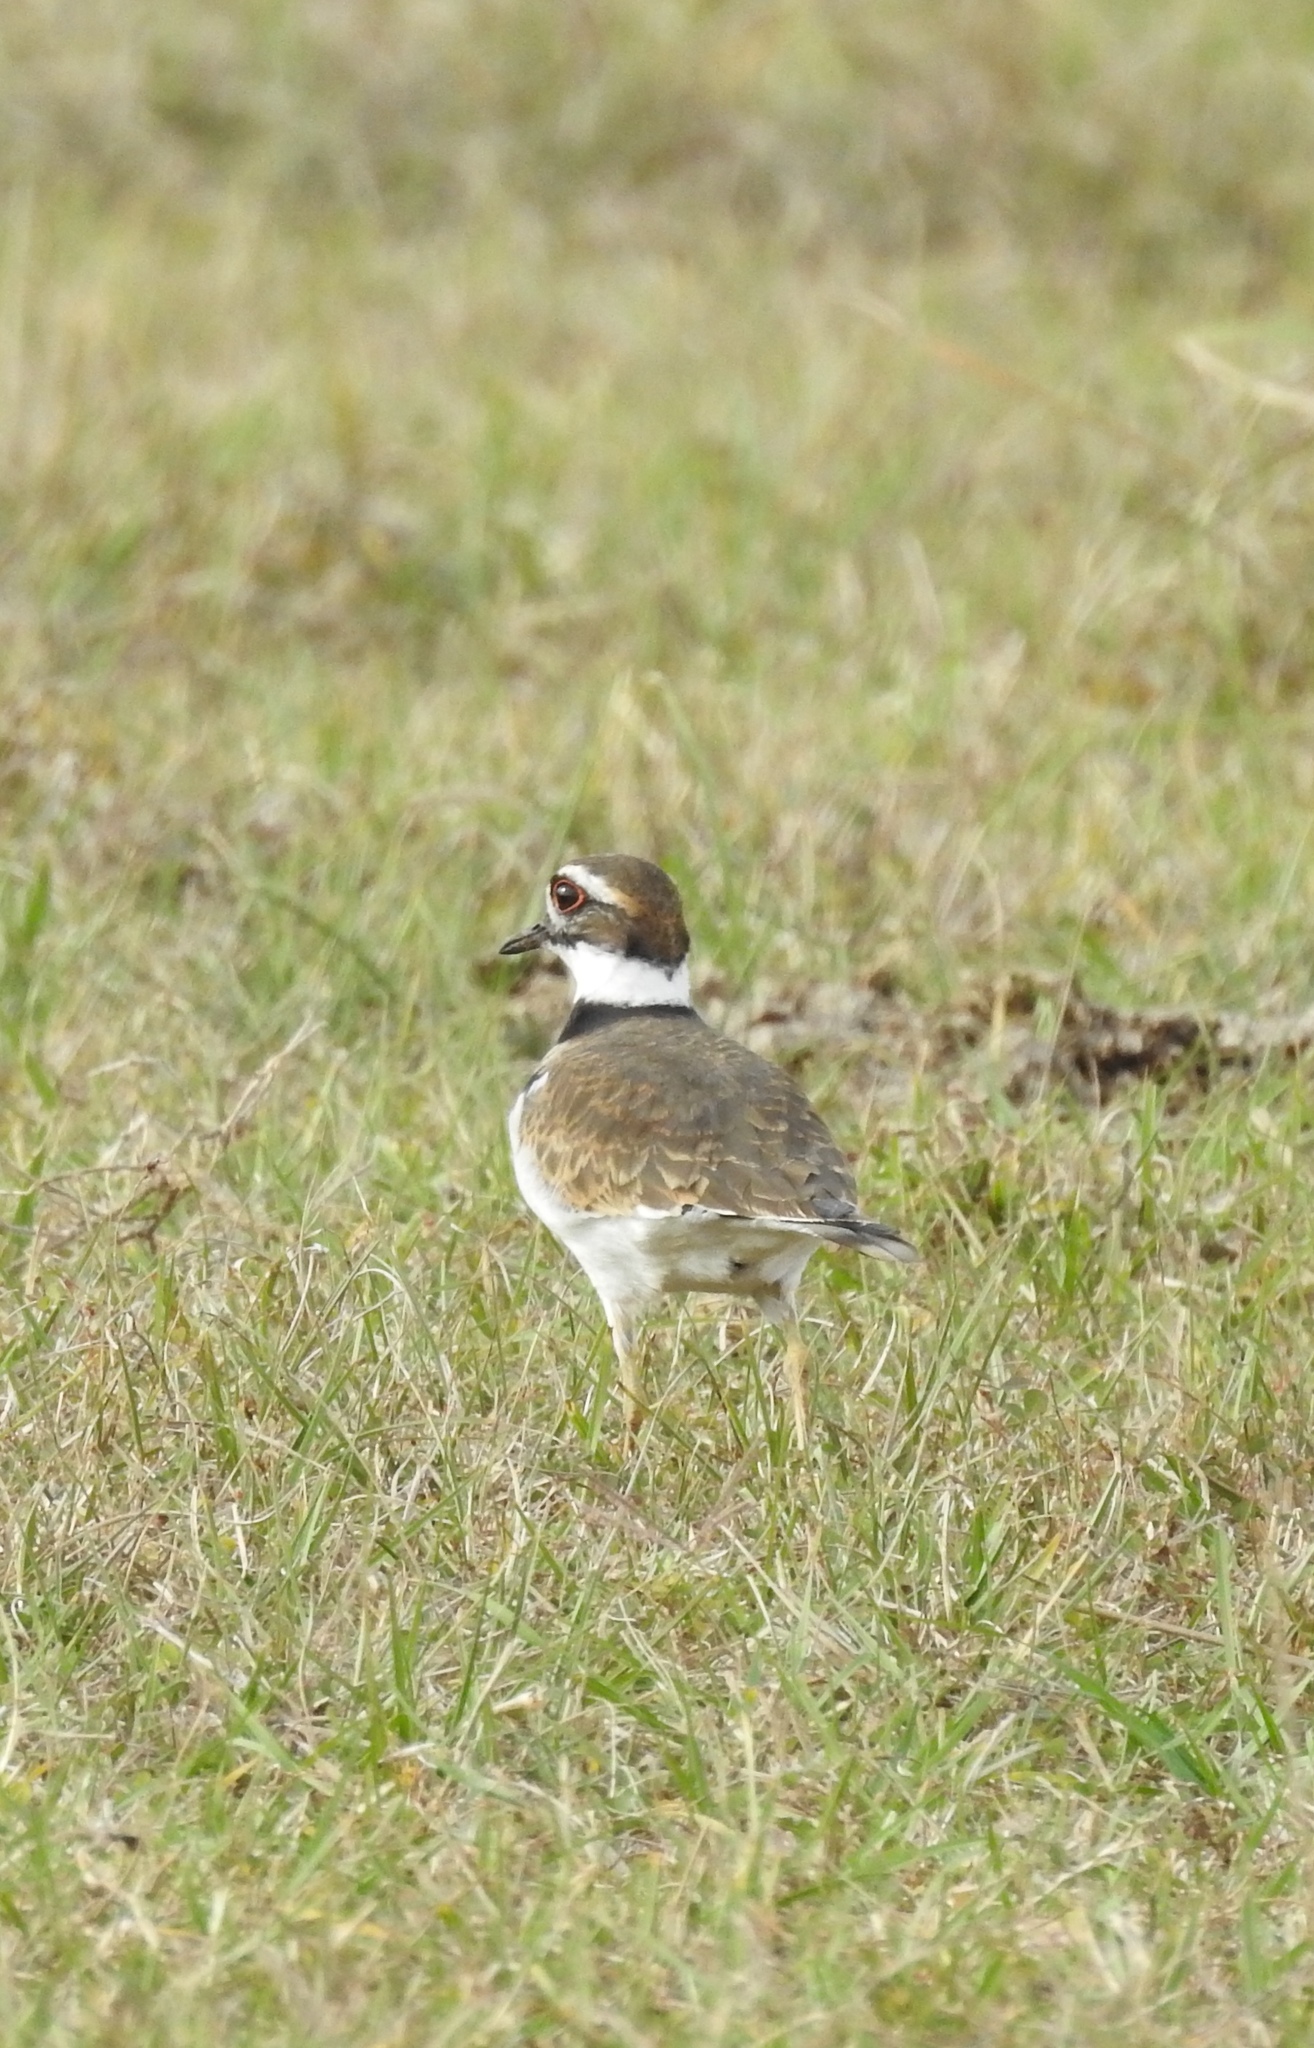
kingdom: Animalia
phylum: Chordata
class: Aves
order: Charadriiformes
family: Charadriidae
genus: Charadrius
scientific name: Charadrius vociferus
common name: Killdeer
